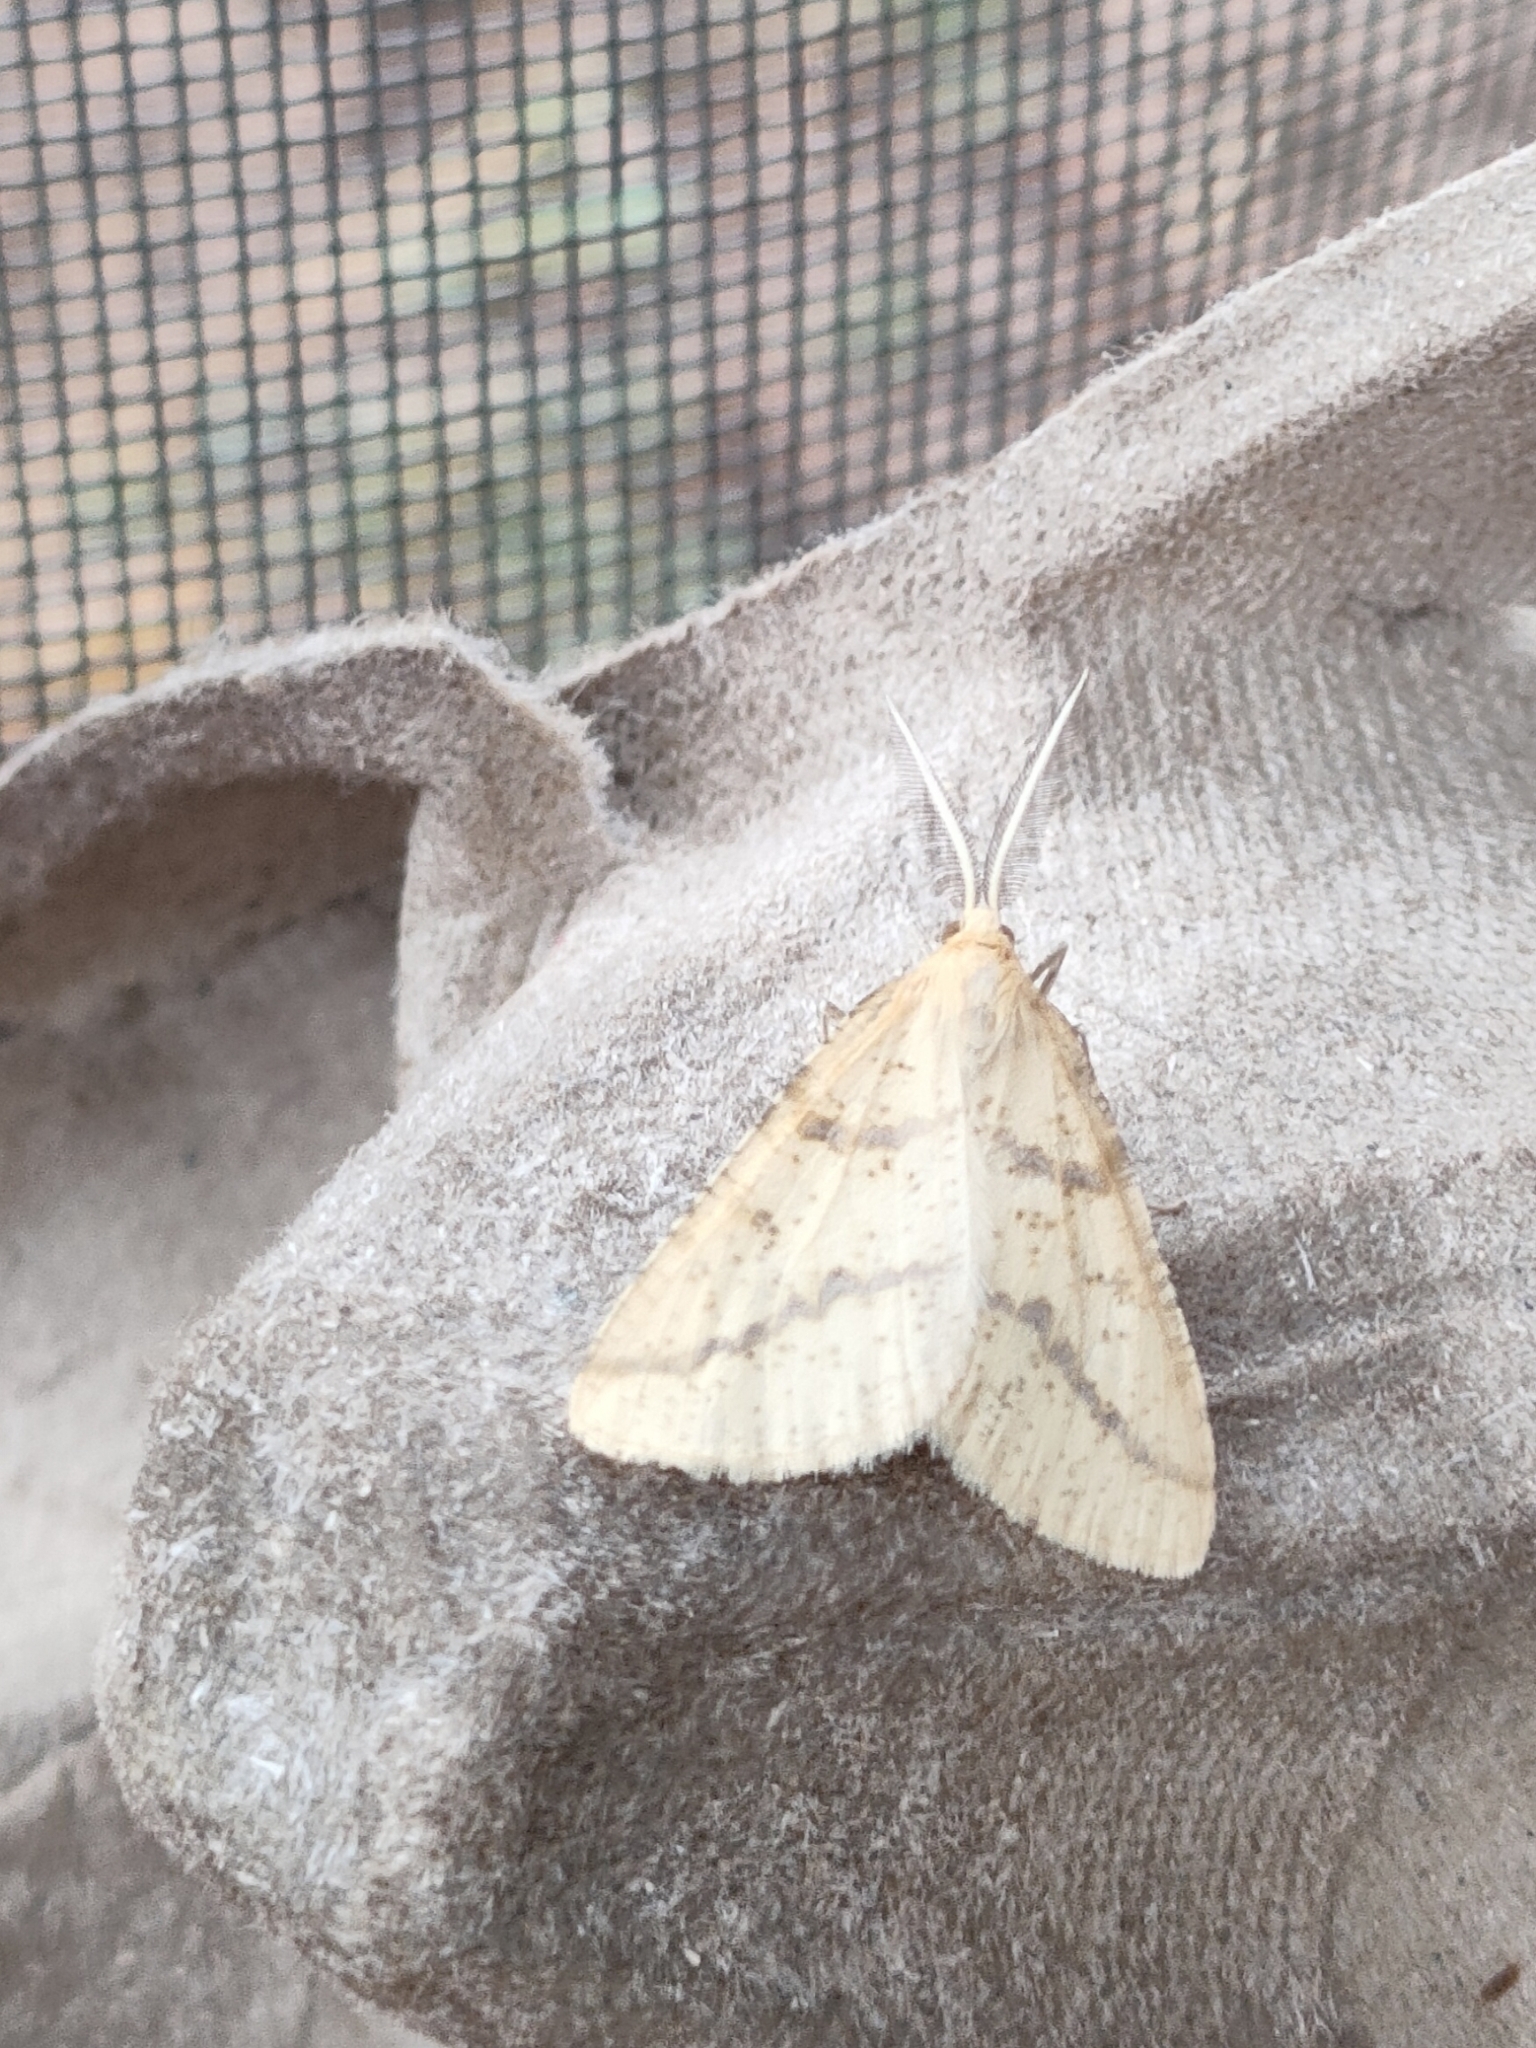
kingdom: Animalia
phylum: Arthropoda
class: Insecta
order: Lepidoptera
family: Geometridae
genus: Aspitates
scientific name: Aspitates ochrearia
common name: Yellow belle
